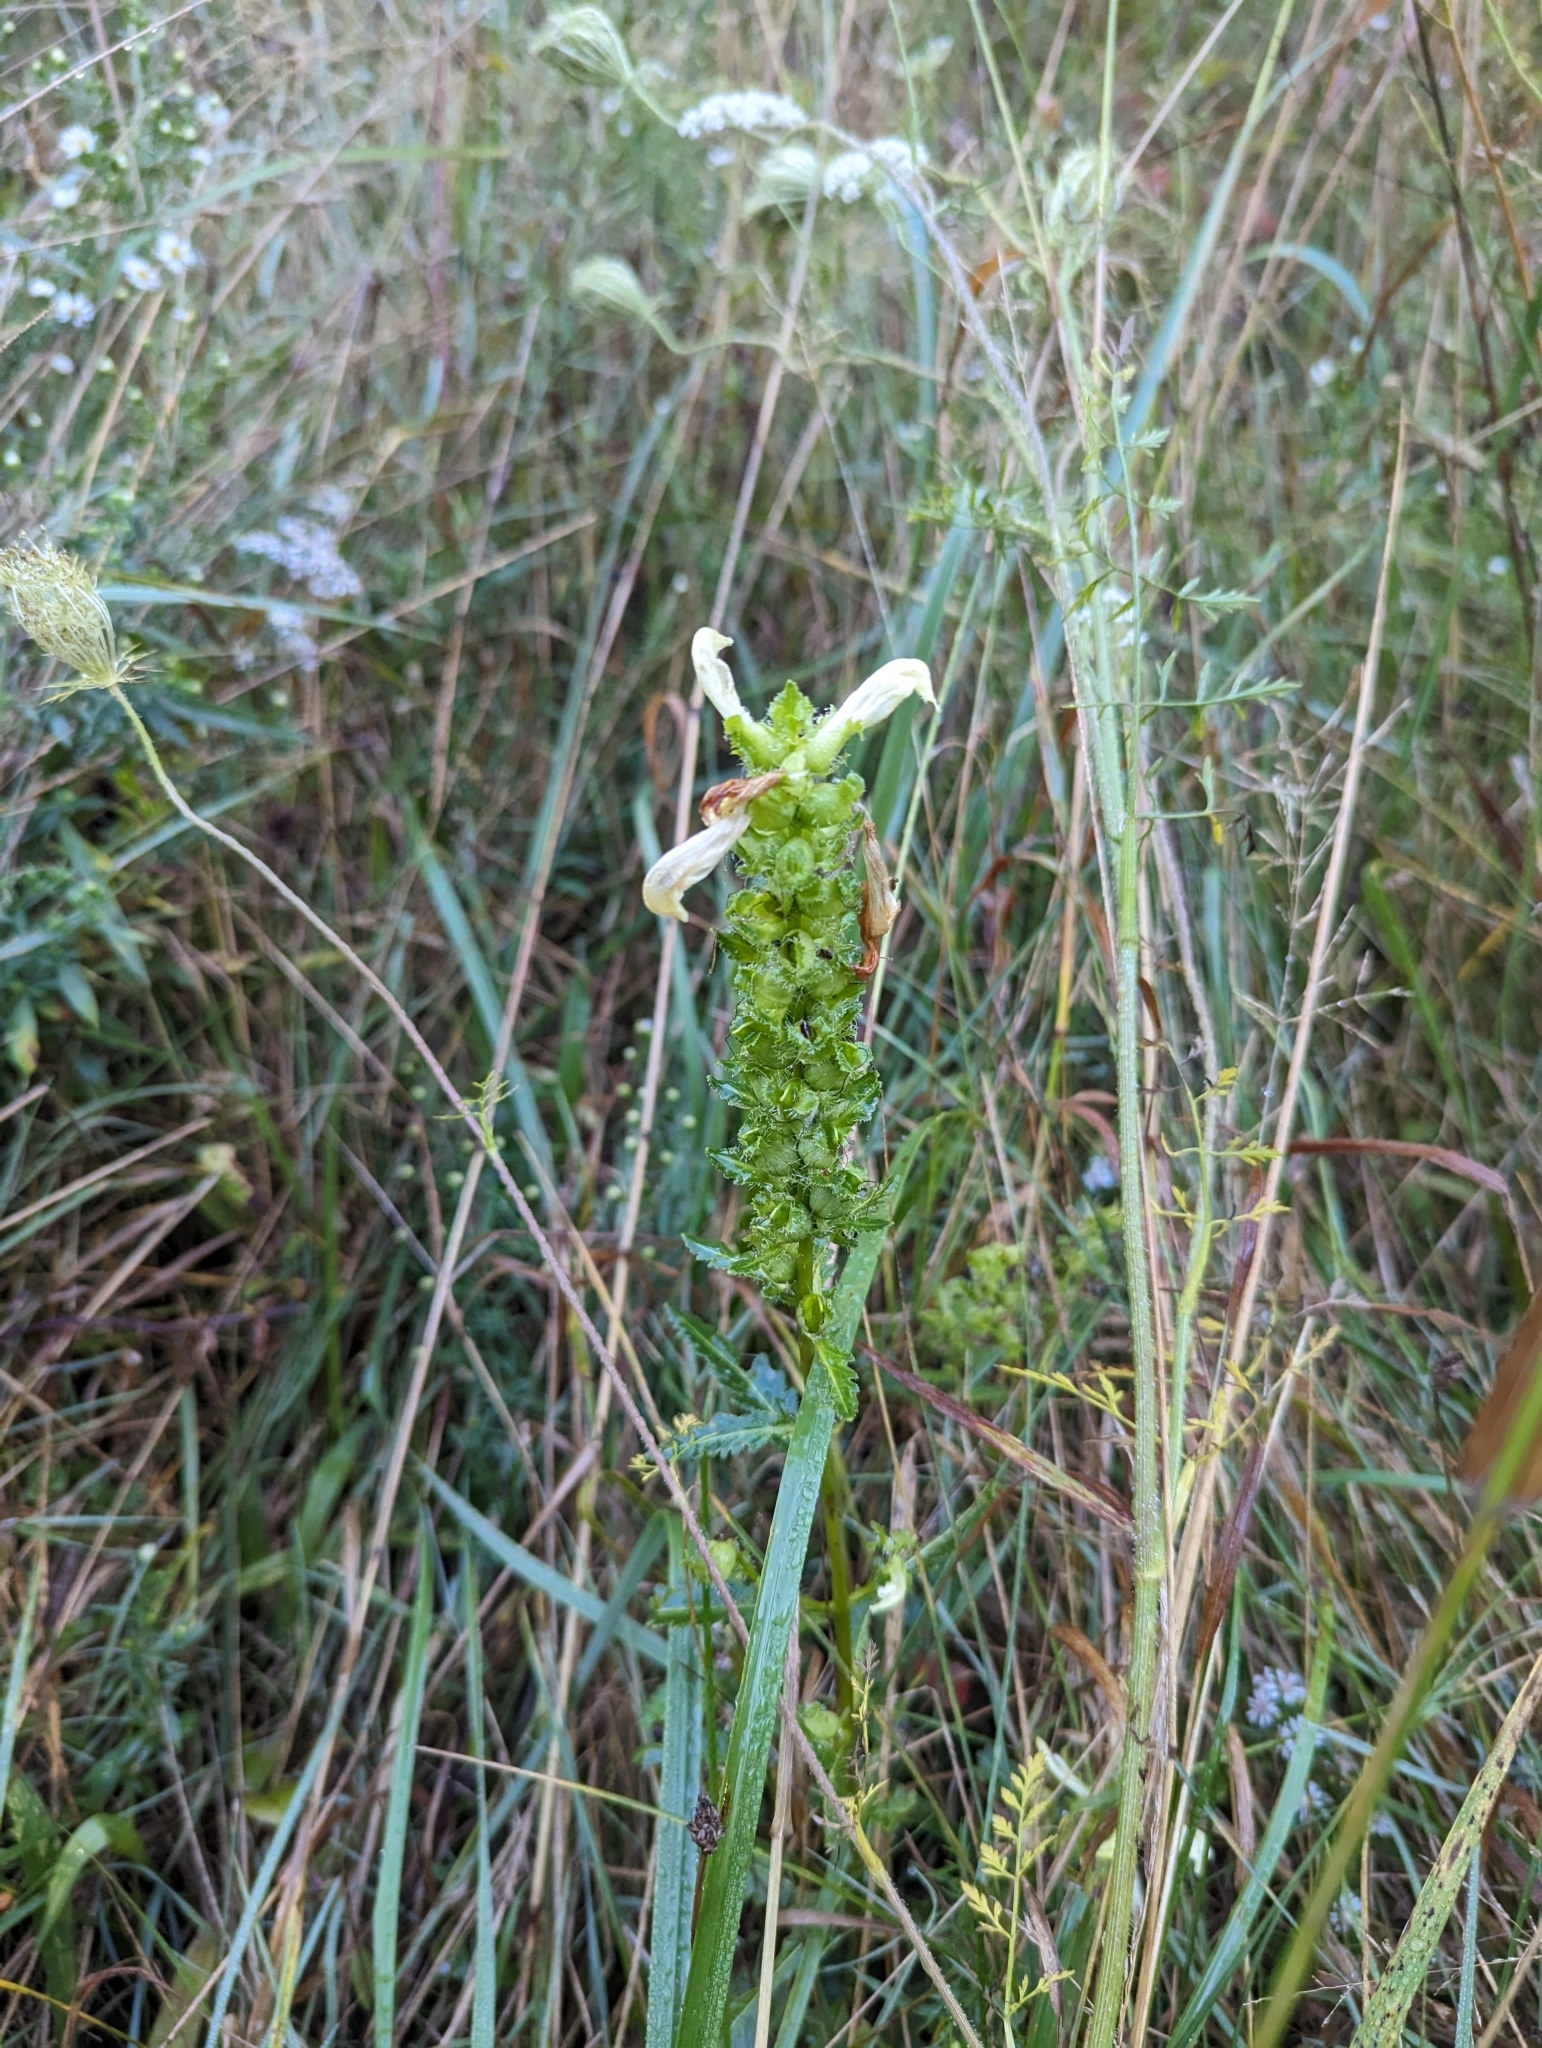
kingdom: Plantae
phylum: Tracheophyta
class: Magnoliopsida
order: Lamiales
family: Orobanchaceae
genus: Pedicularis
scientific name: Pedicularis lanceolata
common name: Swamp lousewort
